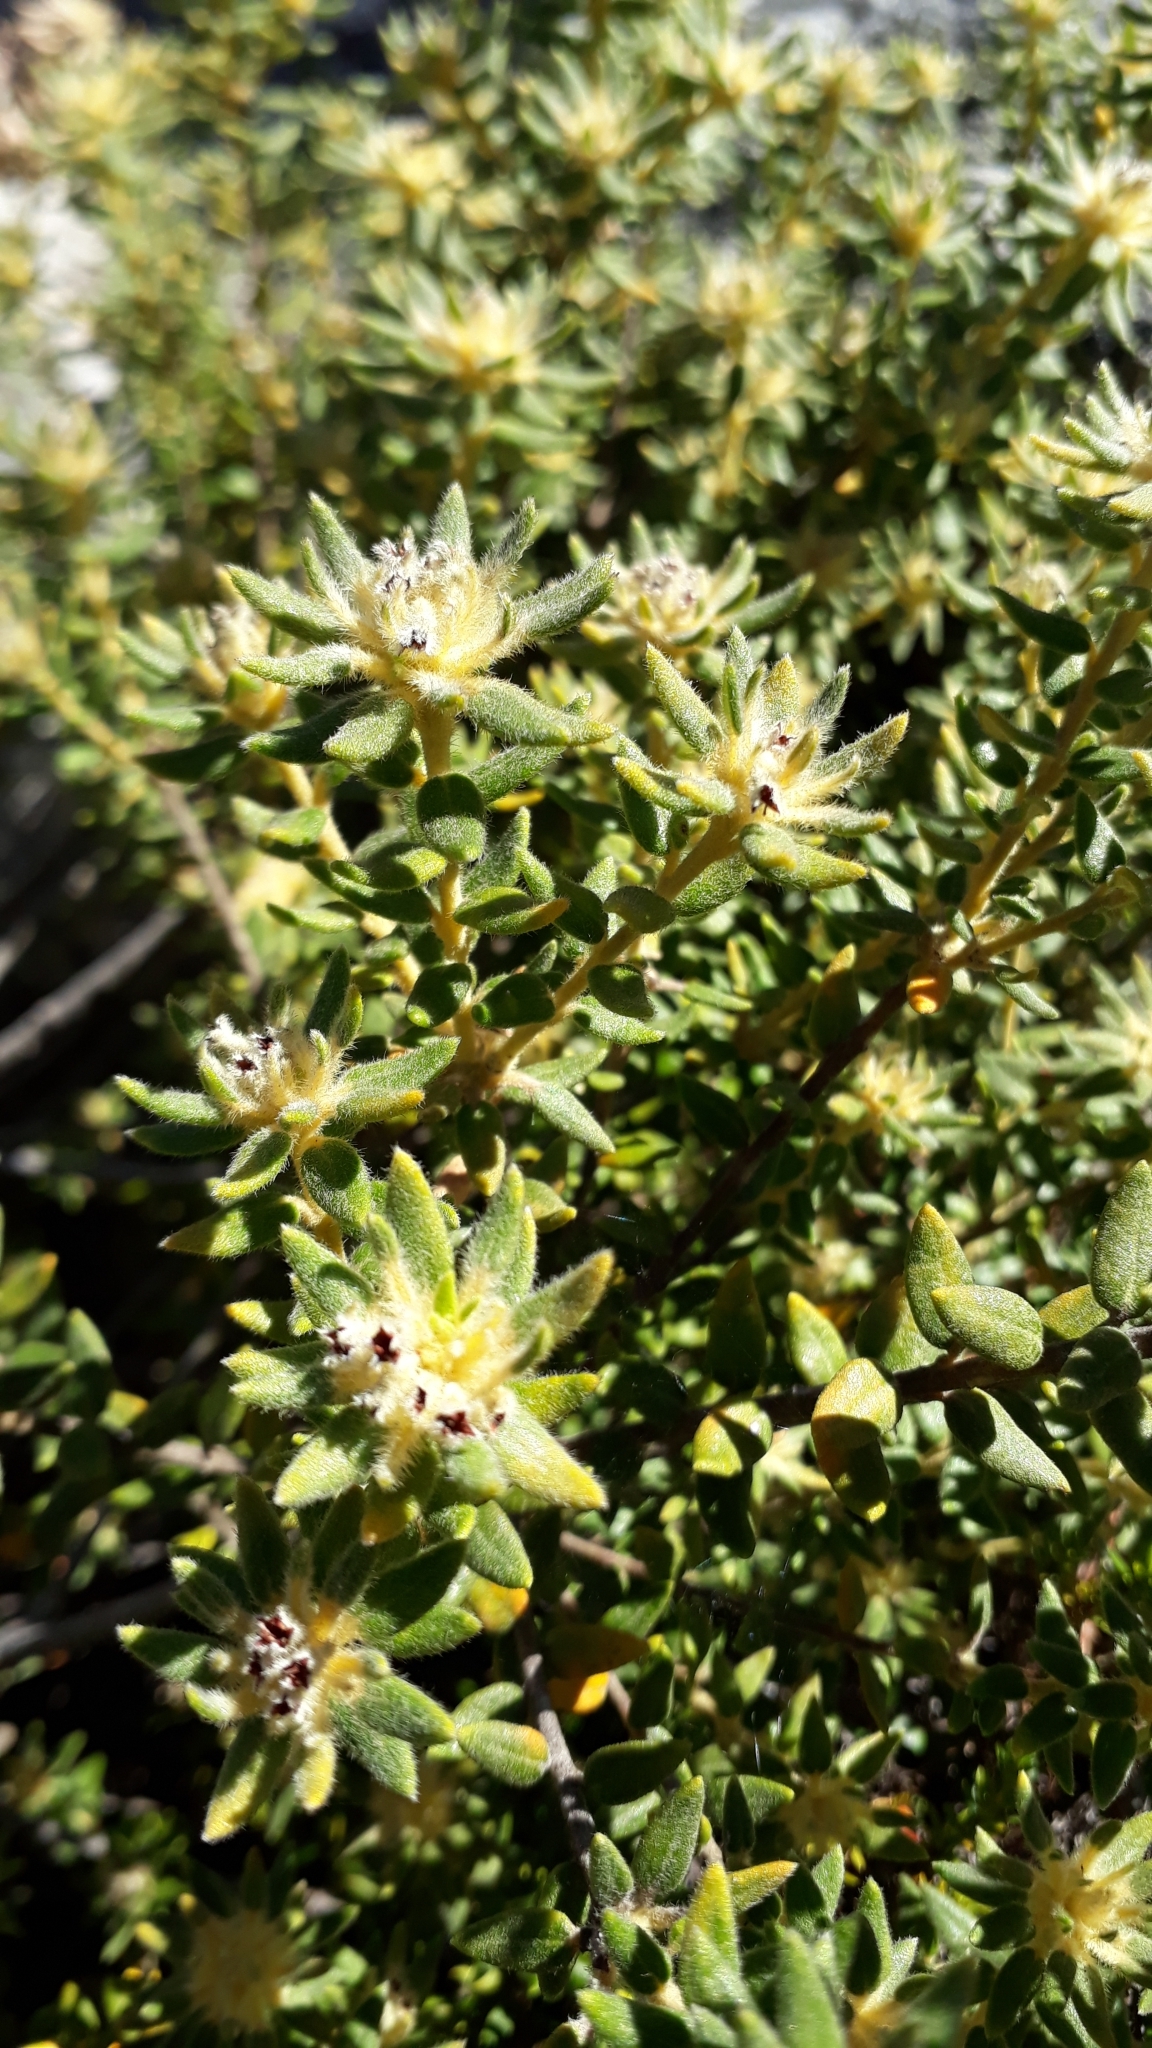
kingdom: Plantae
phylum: Tracheophyta
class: Magnoliopsida
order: Rosales
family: Rhamnaceae
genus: Phylica
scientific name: Phylica dioica
